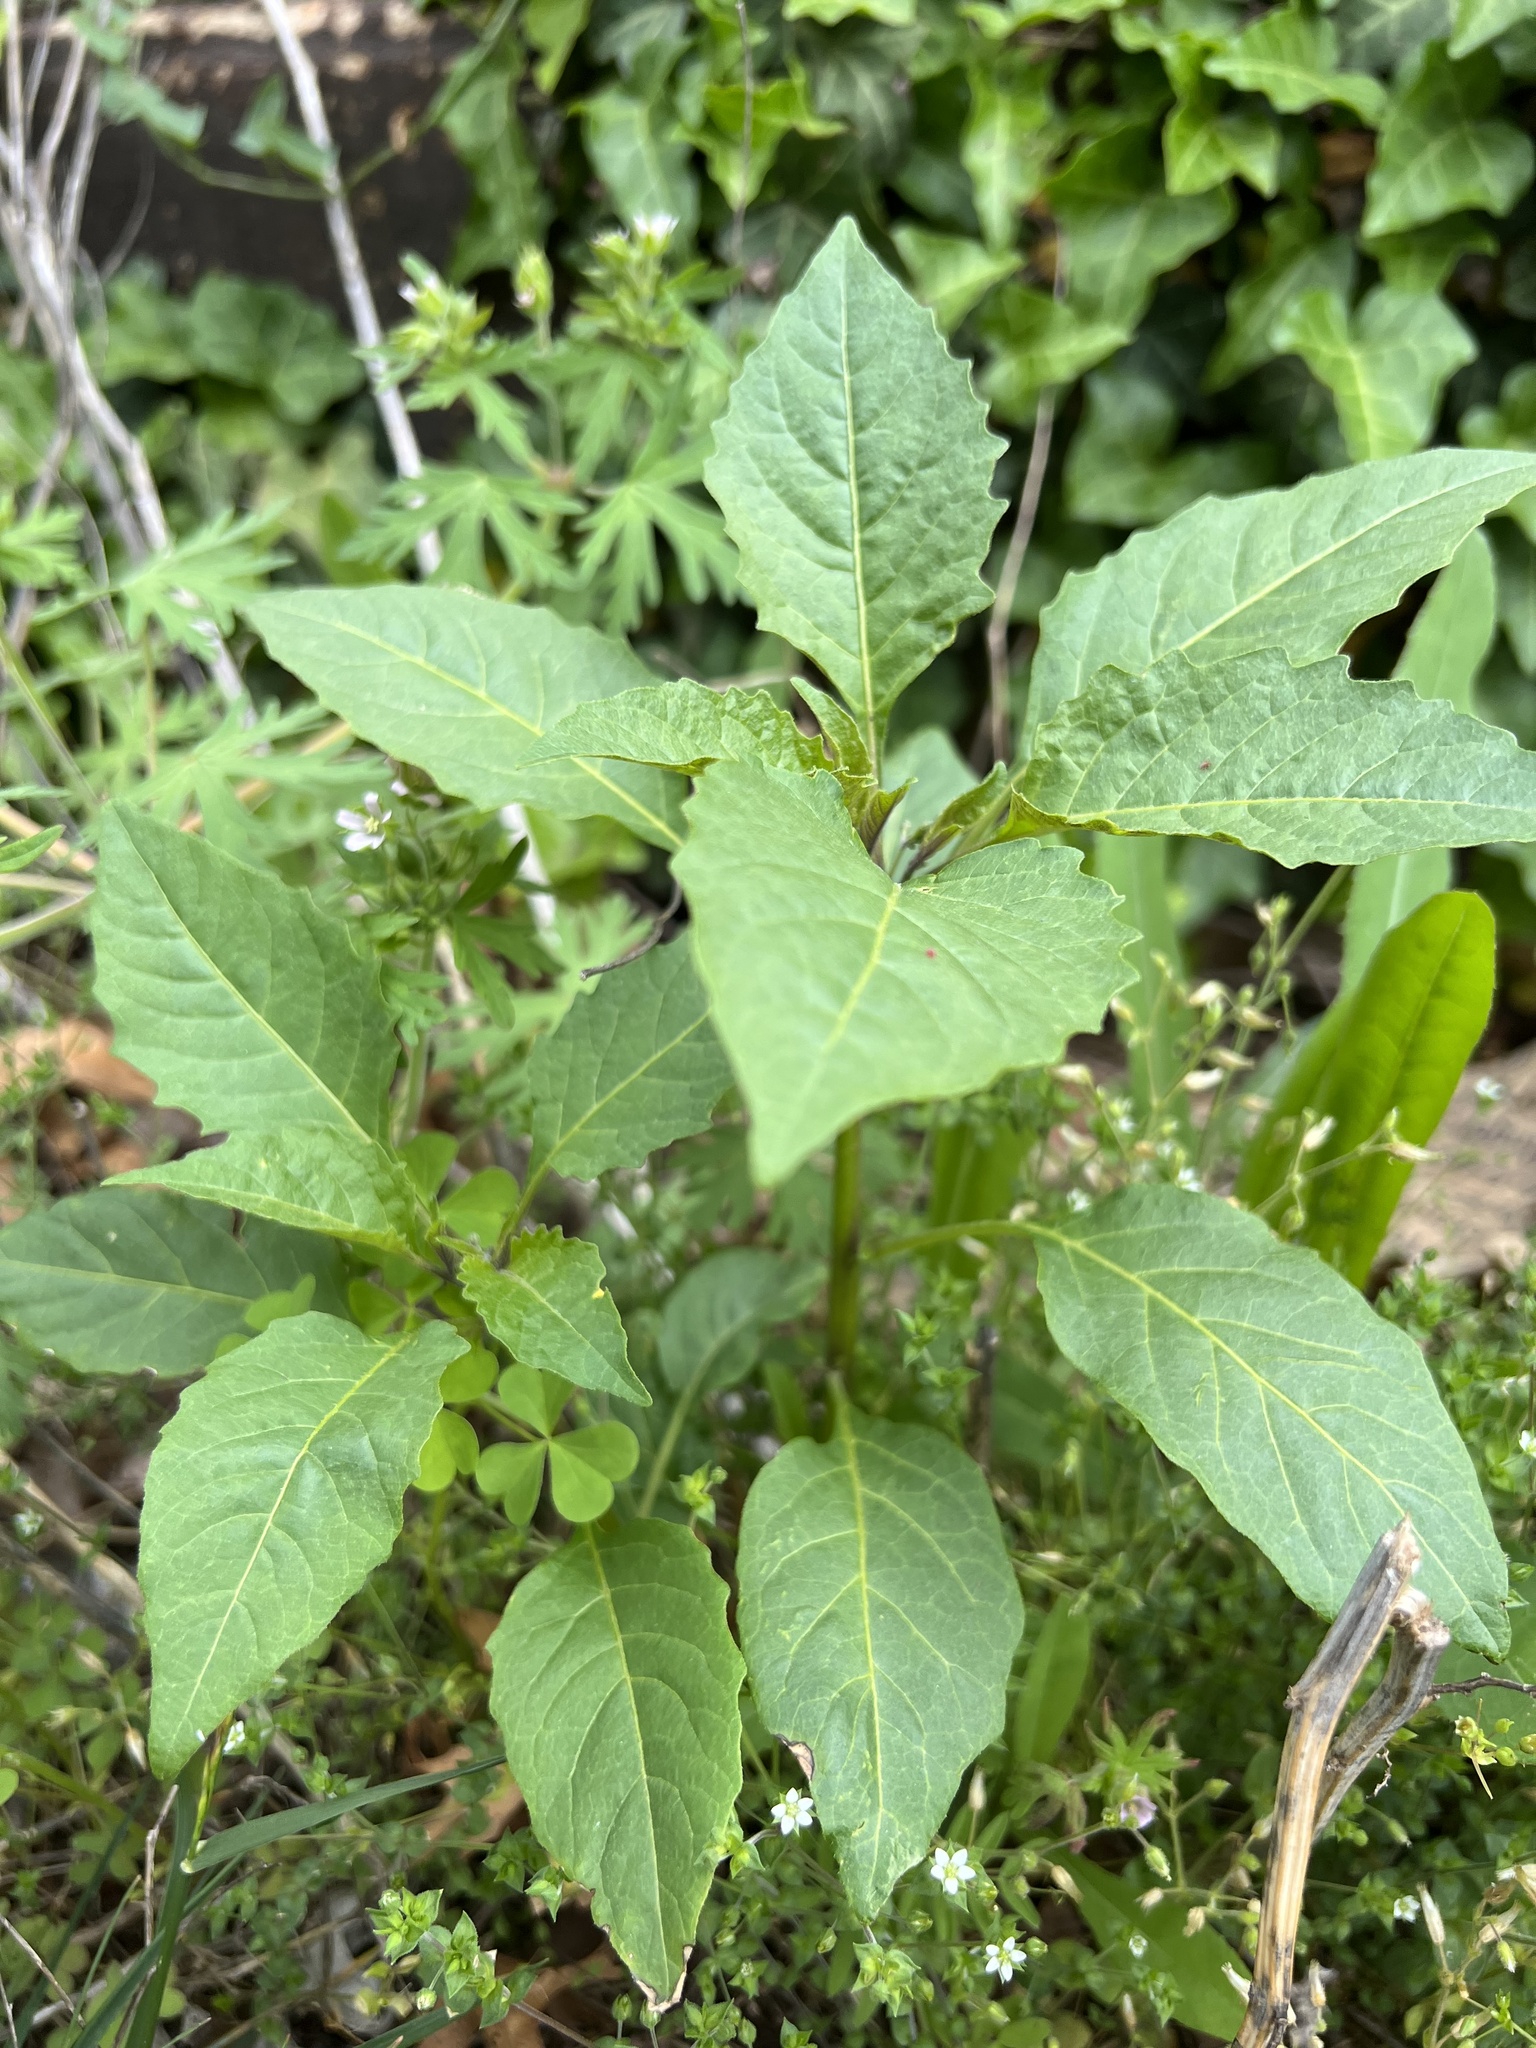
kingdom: Plantae
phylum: Tracheophyta
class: Magnoliopsida
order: Solanales
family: Solanaceae
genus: Solanum
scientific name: Solanum emulans
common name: Eastern black nightshade
